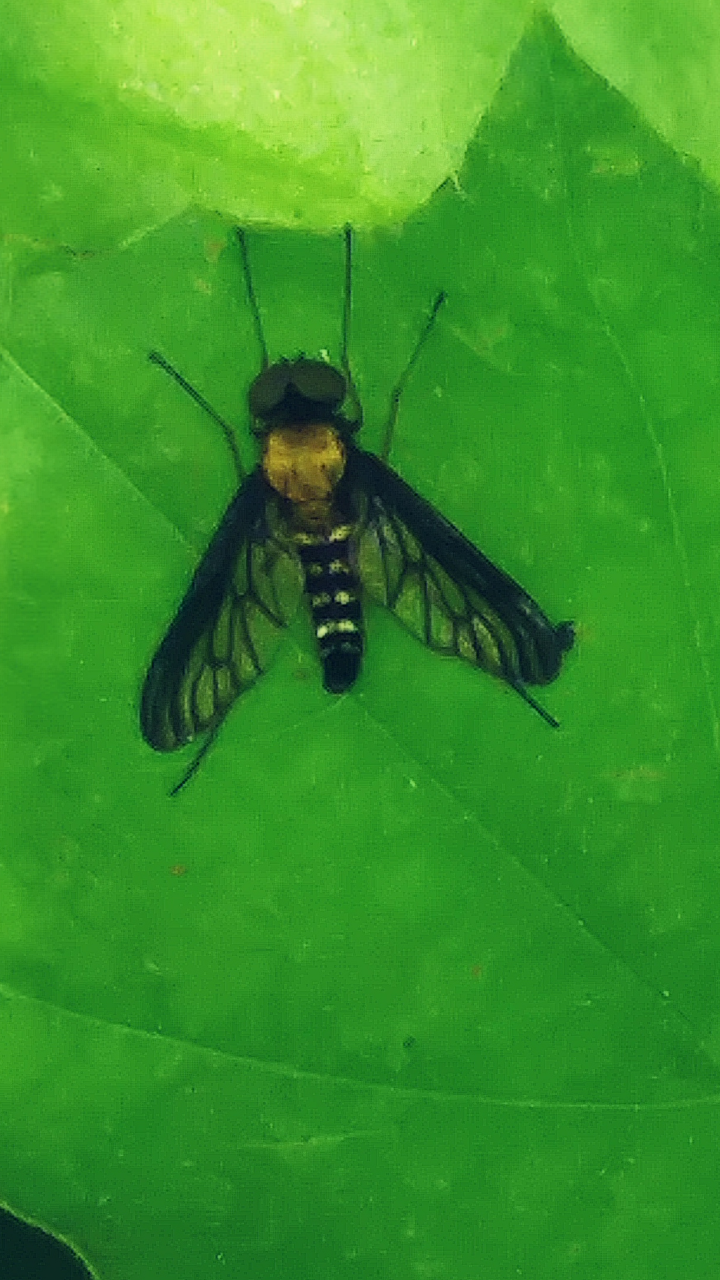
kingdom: Animalia
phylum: Arthropoda
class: Insecta
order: Diptera
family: Rhagionidae
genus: Chrysopilus
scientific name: Chrysopilus thoracicus
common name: Golden-backed snipe fly
